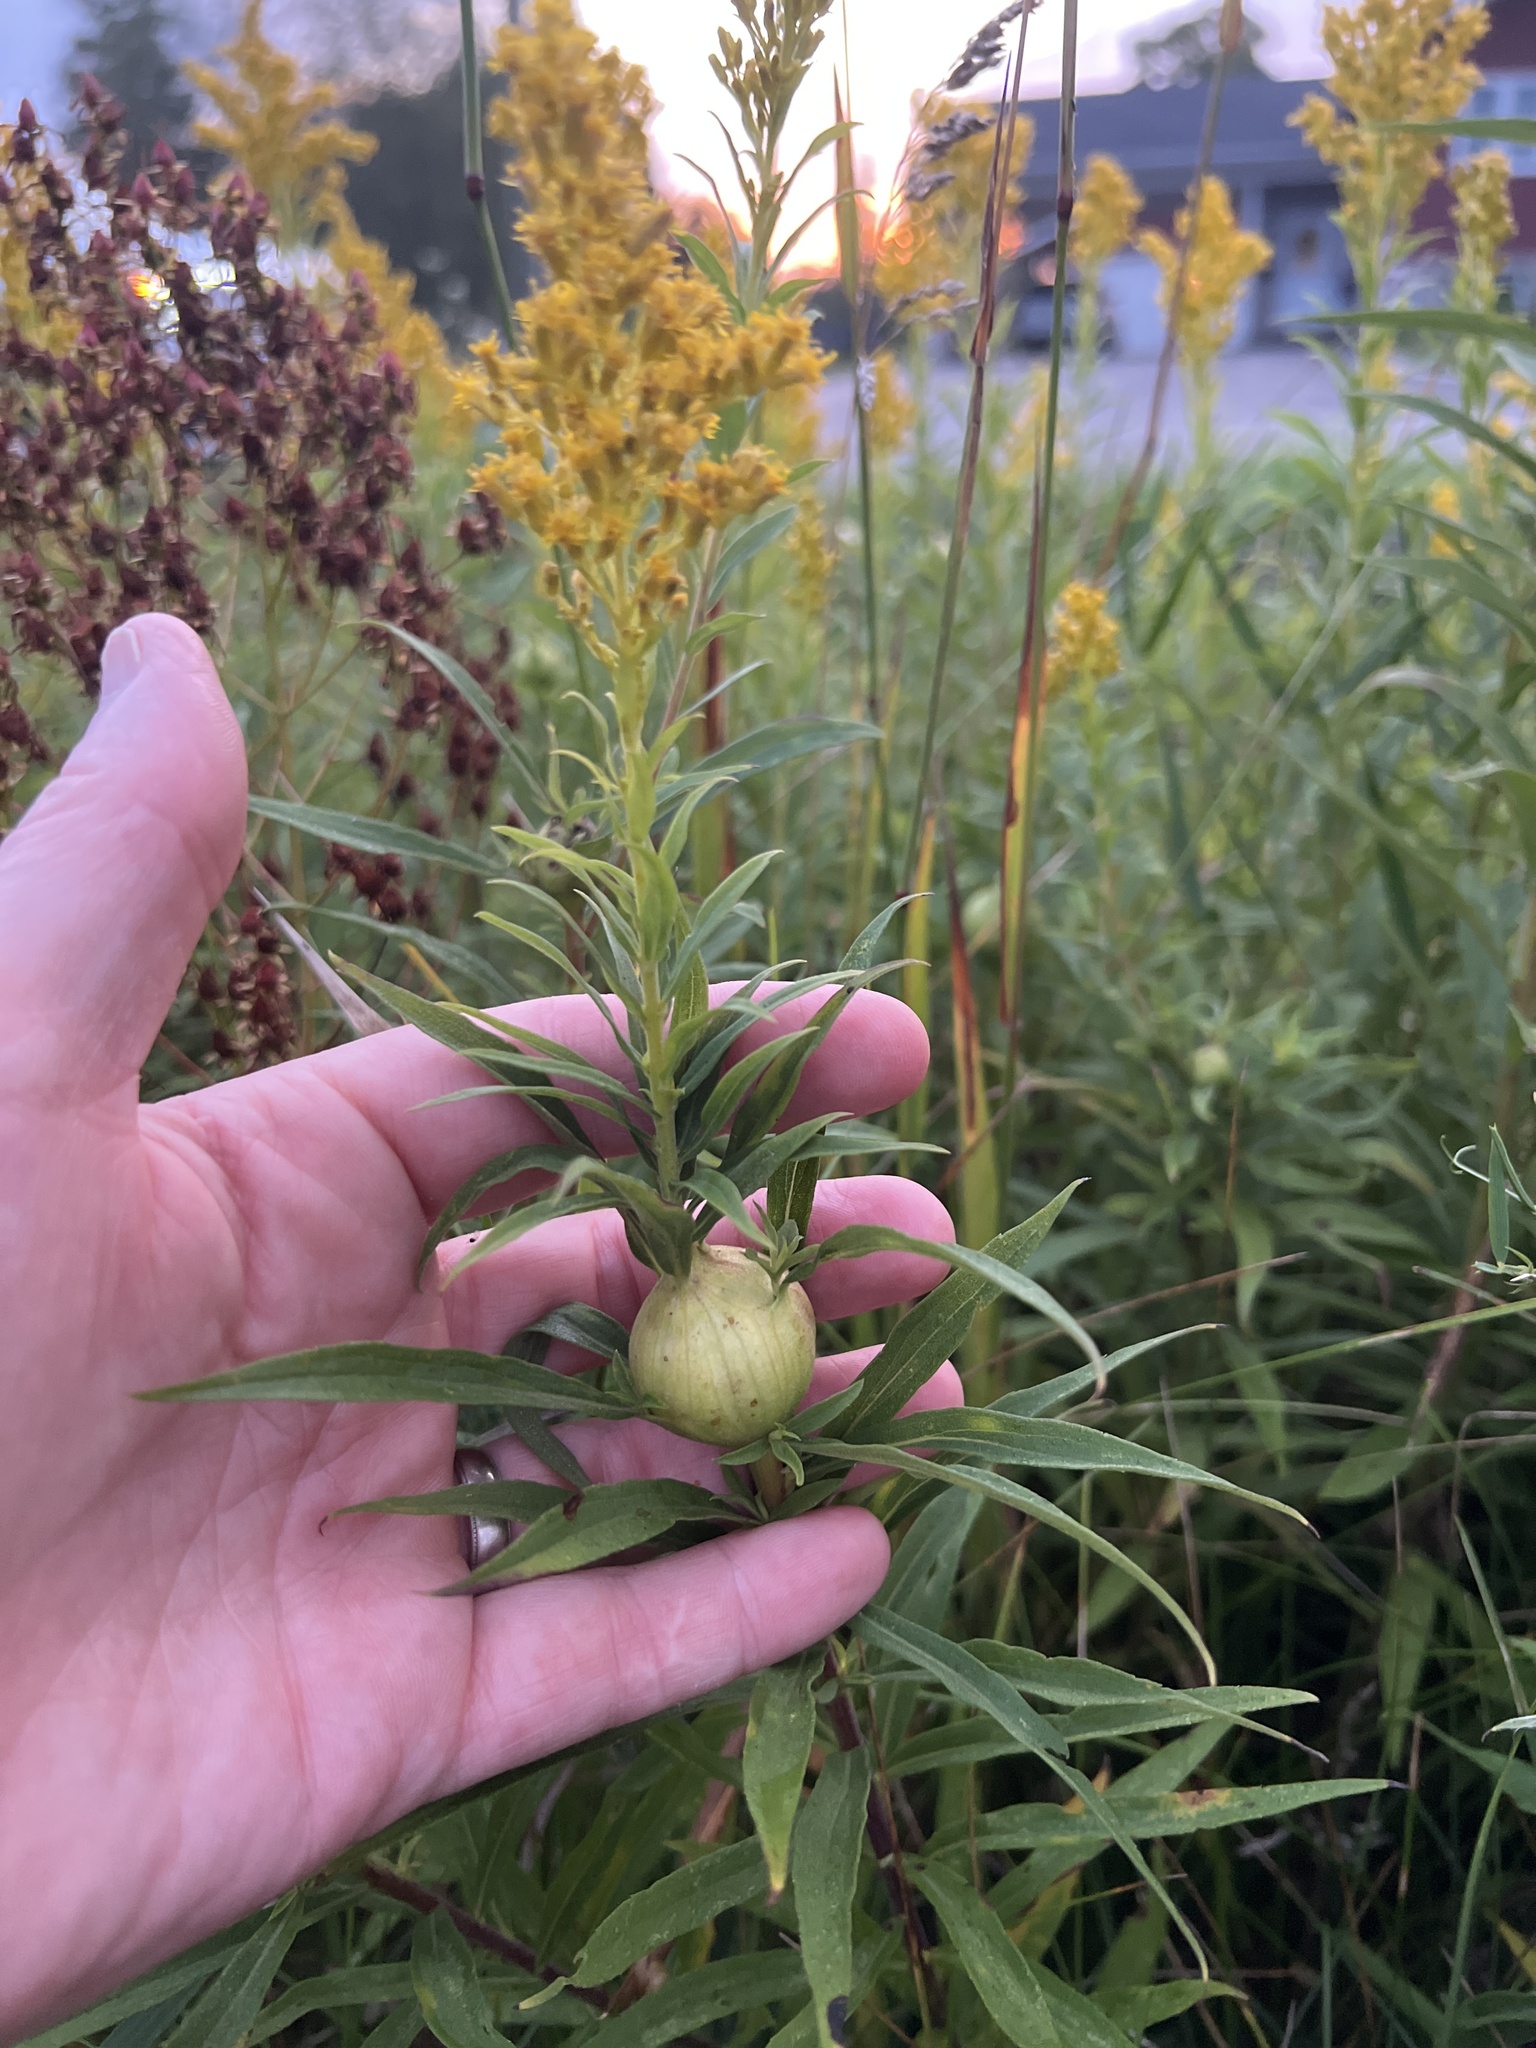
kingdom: Animalia
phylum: Arthropoda
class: Insecta
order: Diptera
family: Tephritidae
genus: Eurosta
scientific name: Eurosta solidaginis
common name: Goldenrod gall fly
